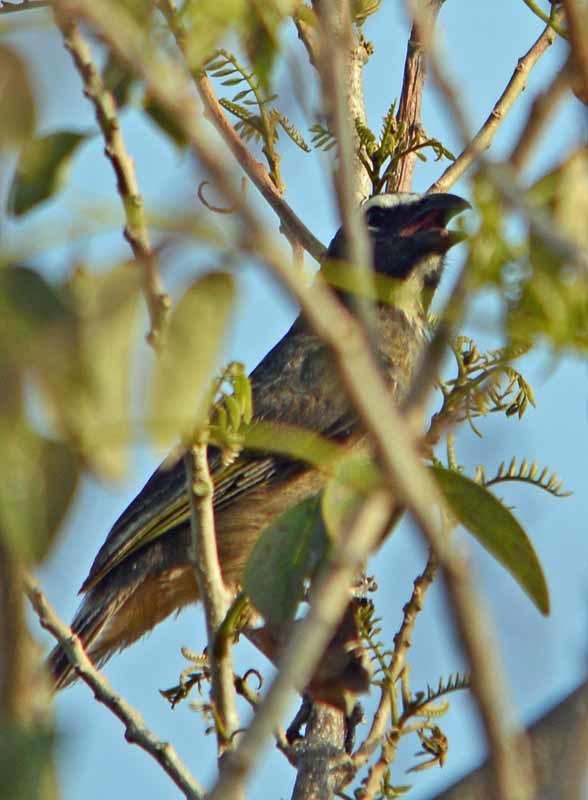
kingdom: Animalia
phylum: Chordata
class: Aves
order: Passeriformes
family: Thraupidae
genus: Saltator
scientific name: Saltator grandis
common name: Cinnamon-bellied saltator
